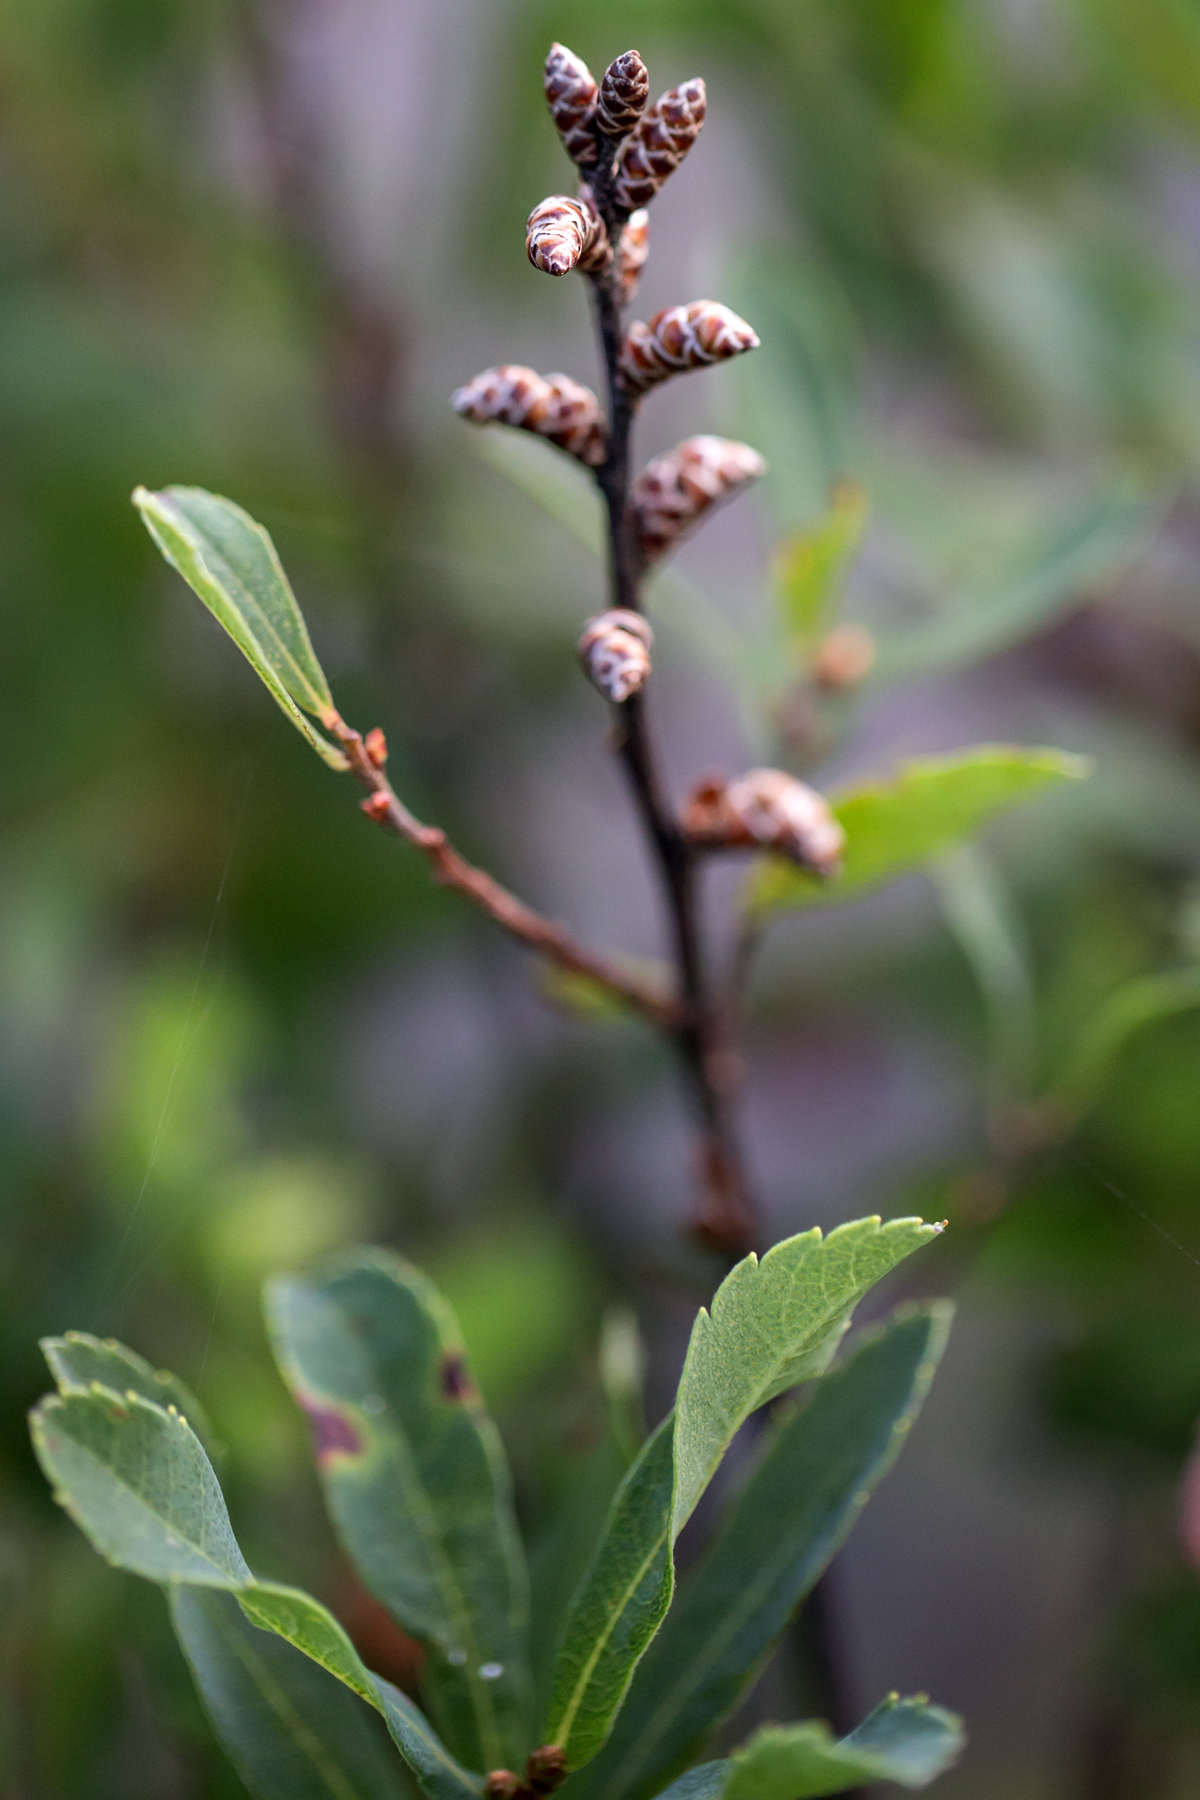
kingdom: Plantae
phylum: Tracheophyta
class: Magnoliopsida
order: Fagales
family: Myricaceae
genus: Myrica
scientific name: Myrica gale
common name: Sweet gale
